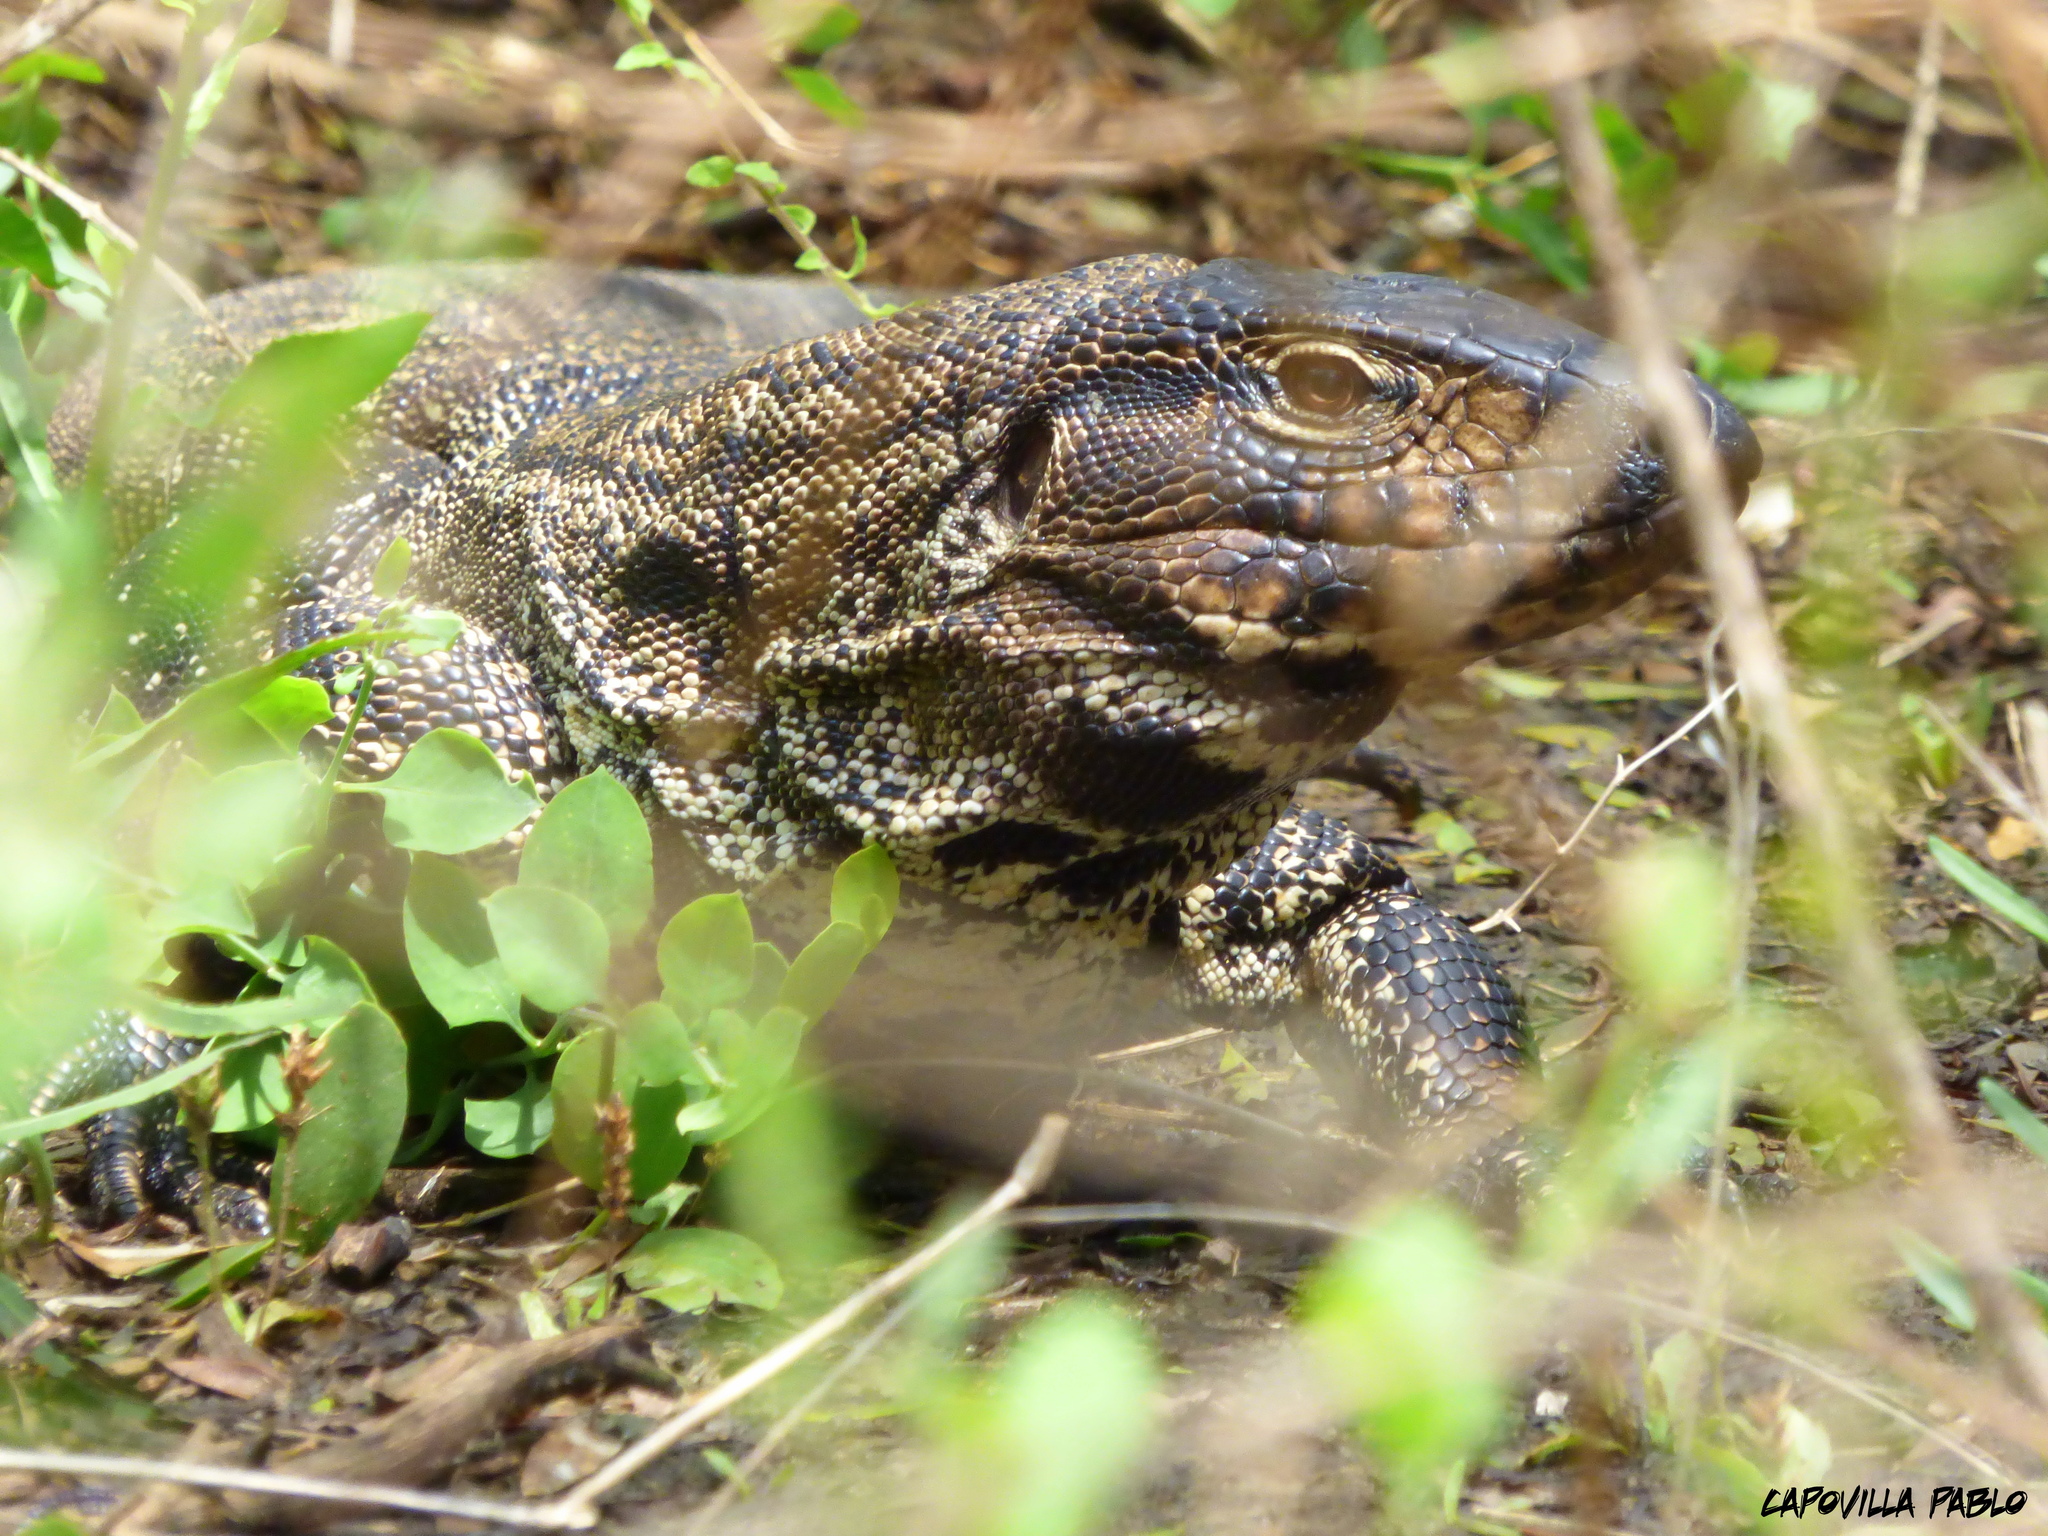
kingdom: Animalia
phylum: Chordata
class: Squamata
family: Teiidae
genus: Salvator
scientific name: Salvator merianae
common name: Argentine black and white tegu
